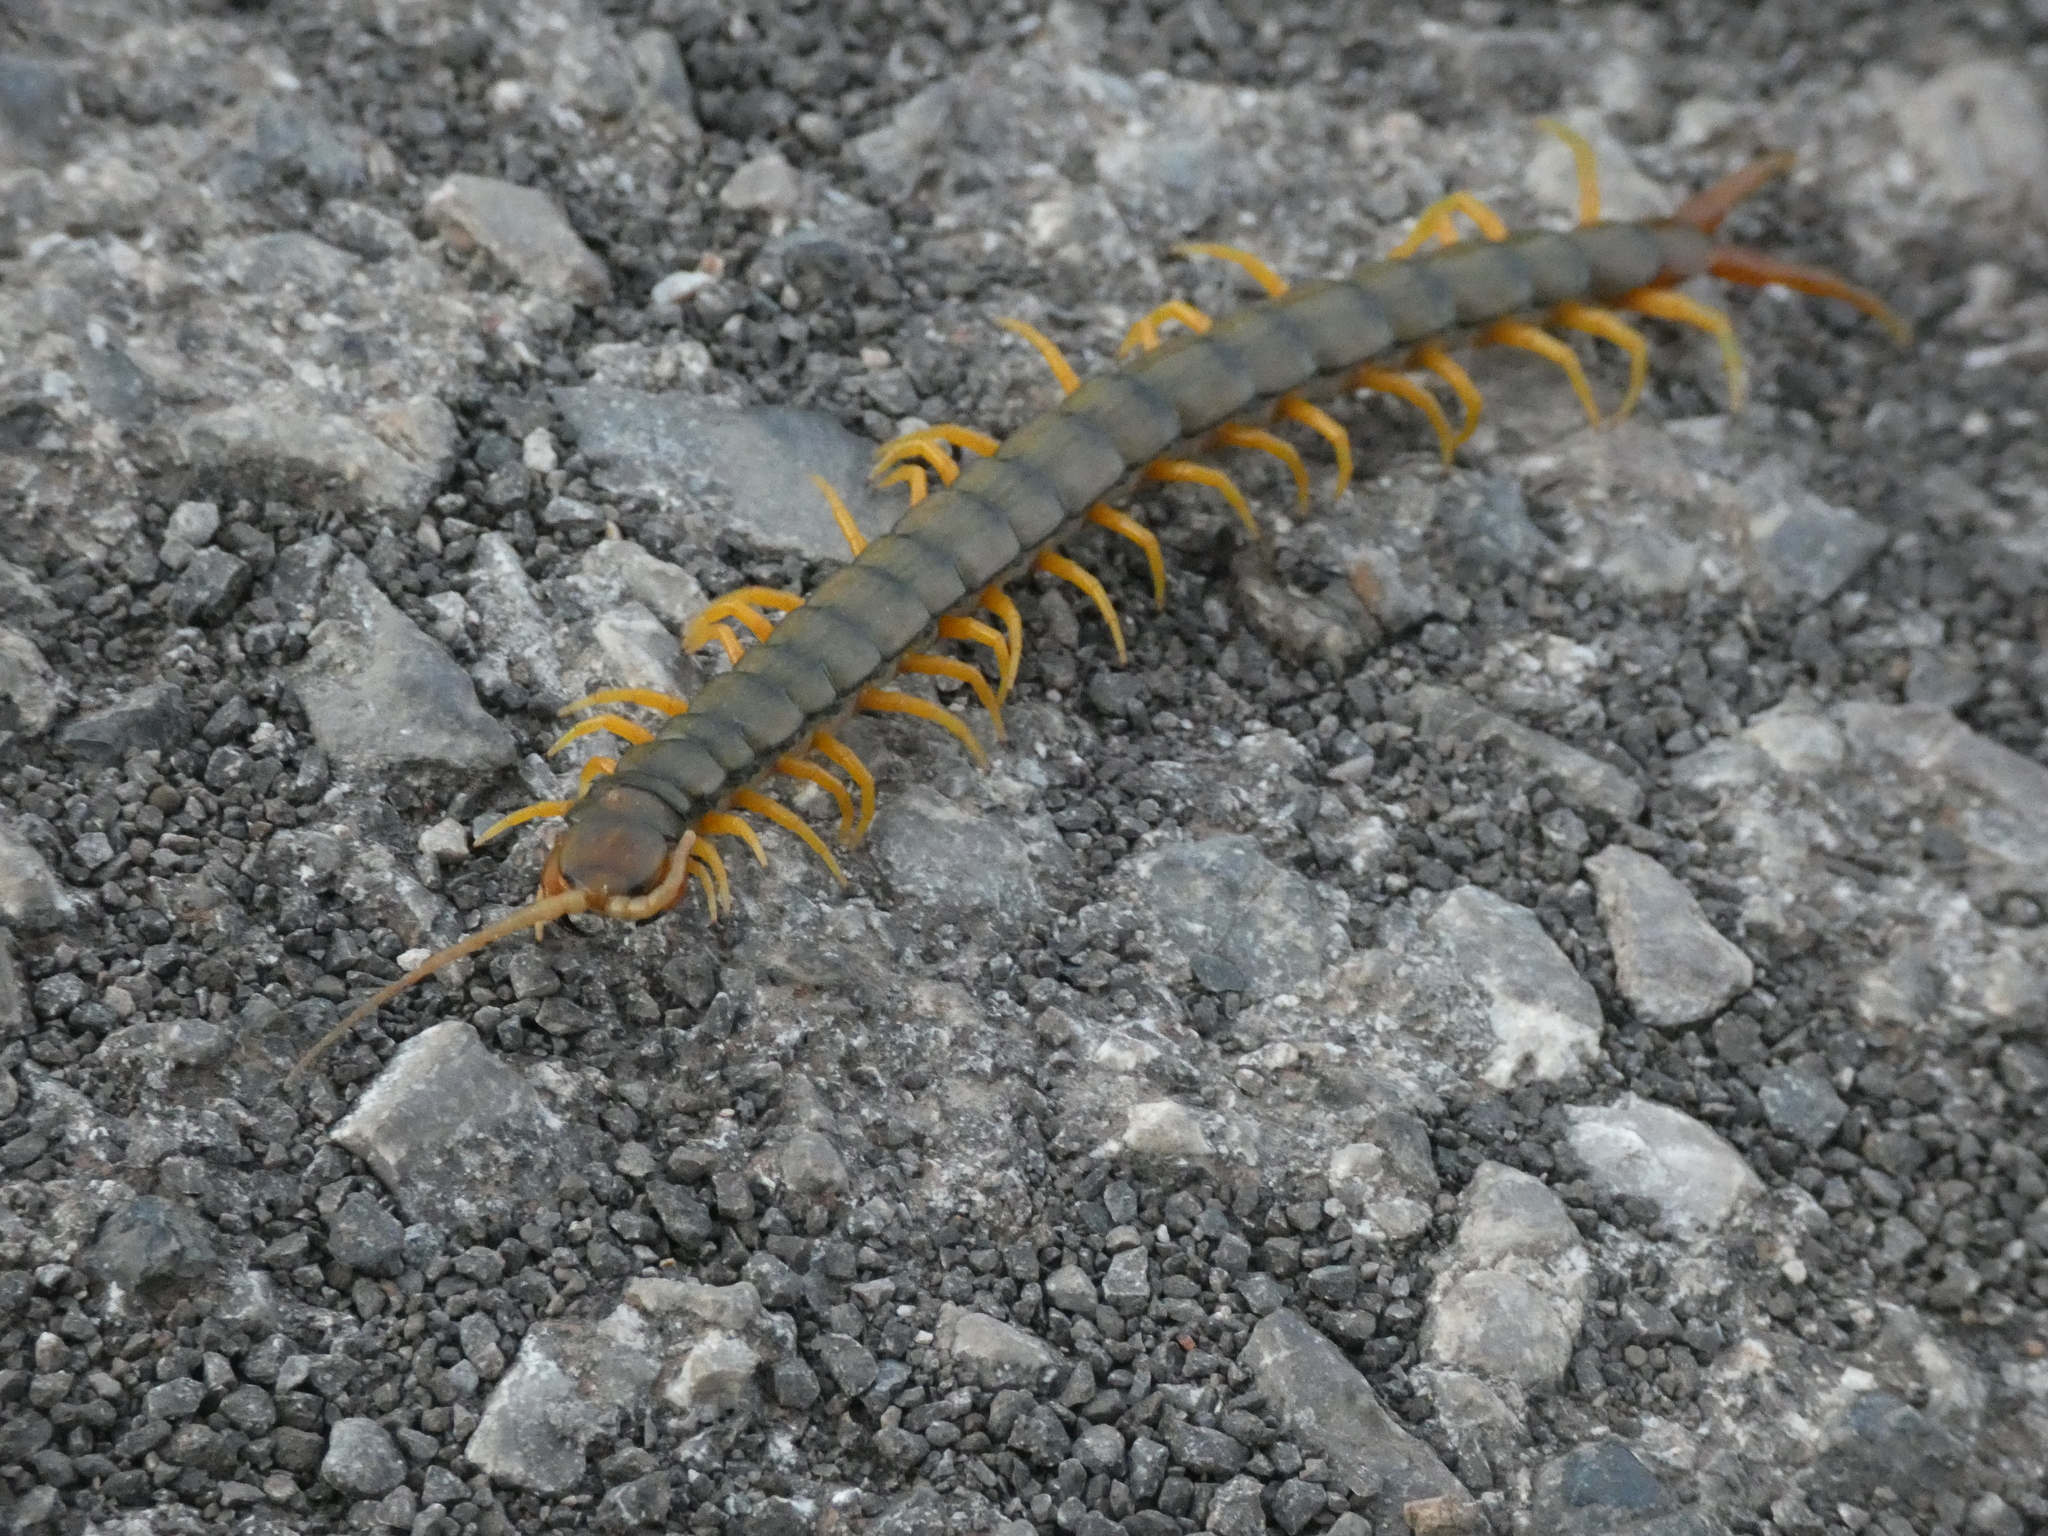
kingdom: Animalia
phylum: Arthropoda
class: Chilopoda
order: Scolopendromorpha
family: Scolopendridae
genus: Scolopendra
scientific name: Scolopendra cingulata
